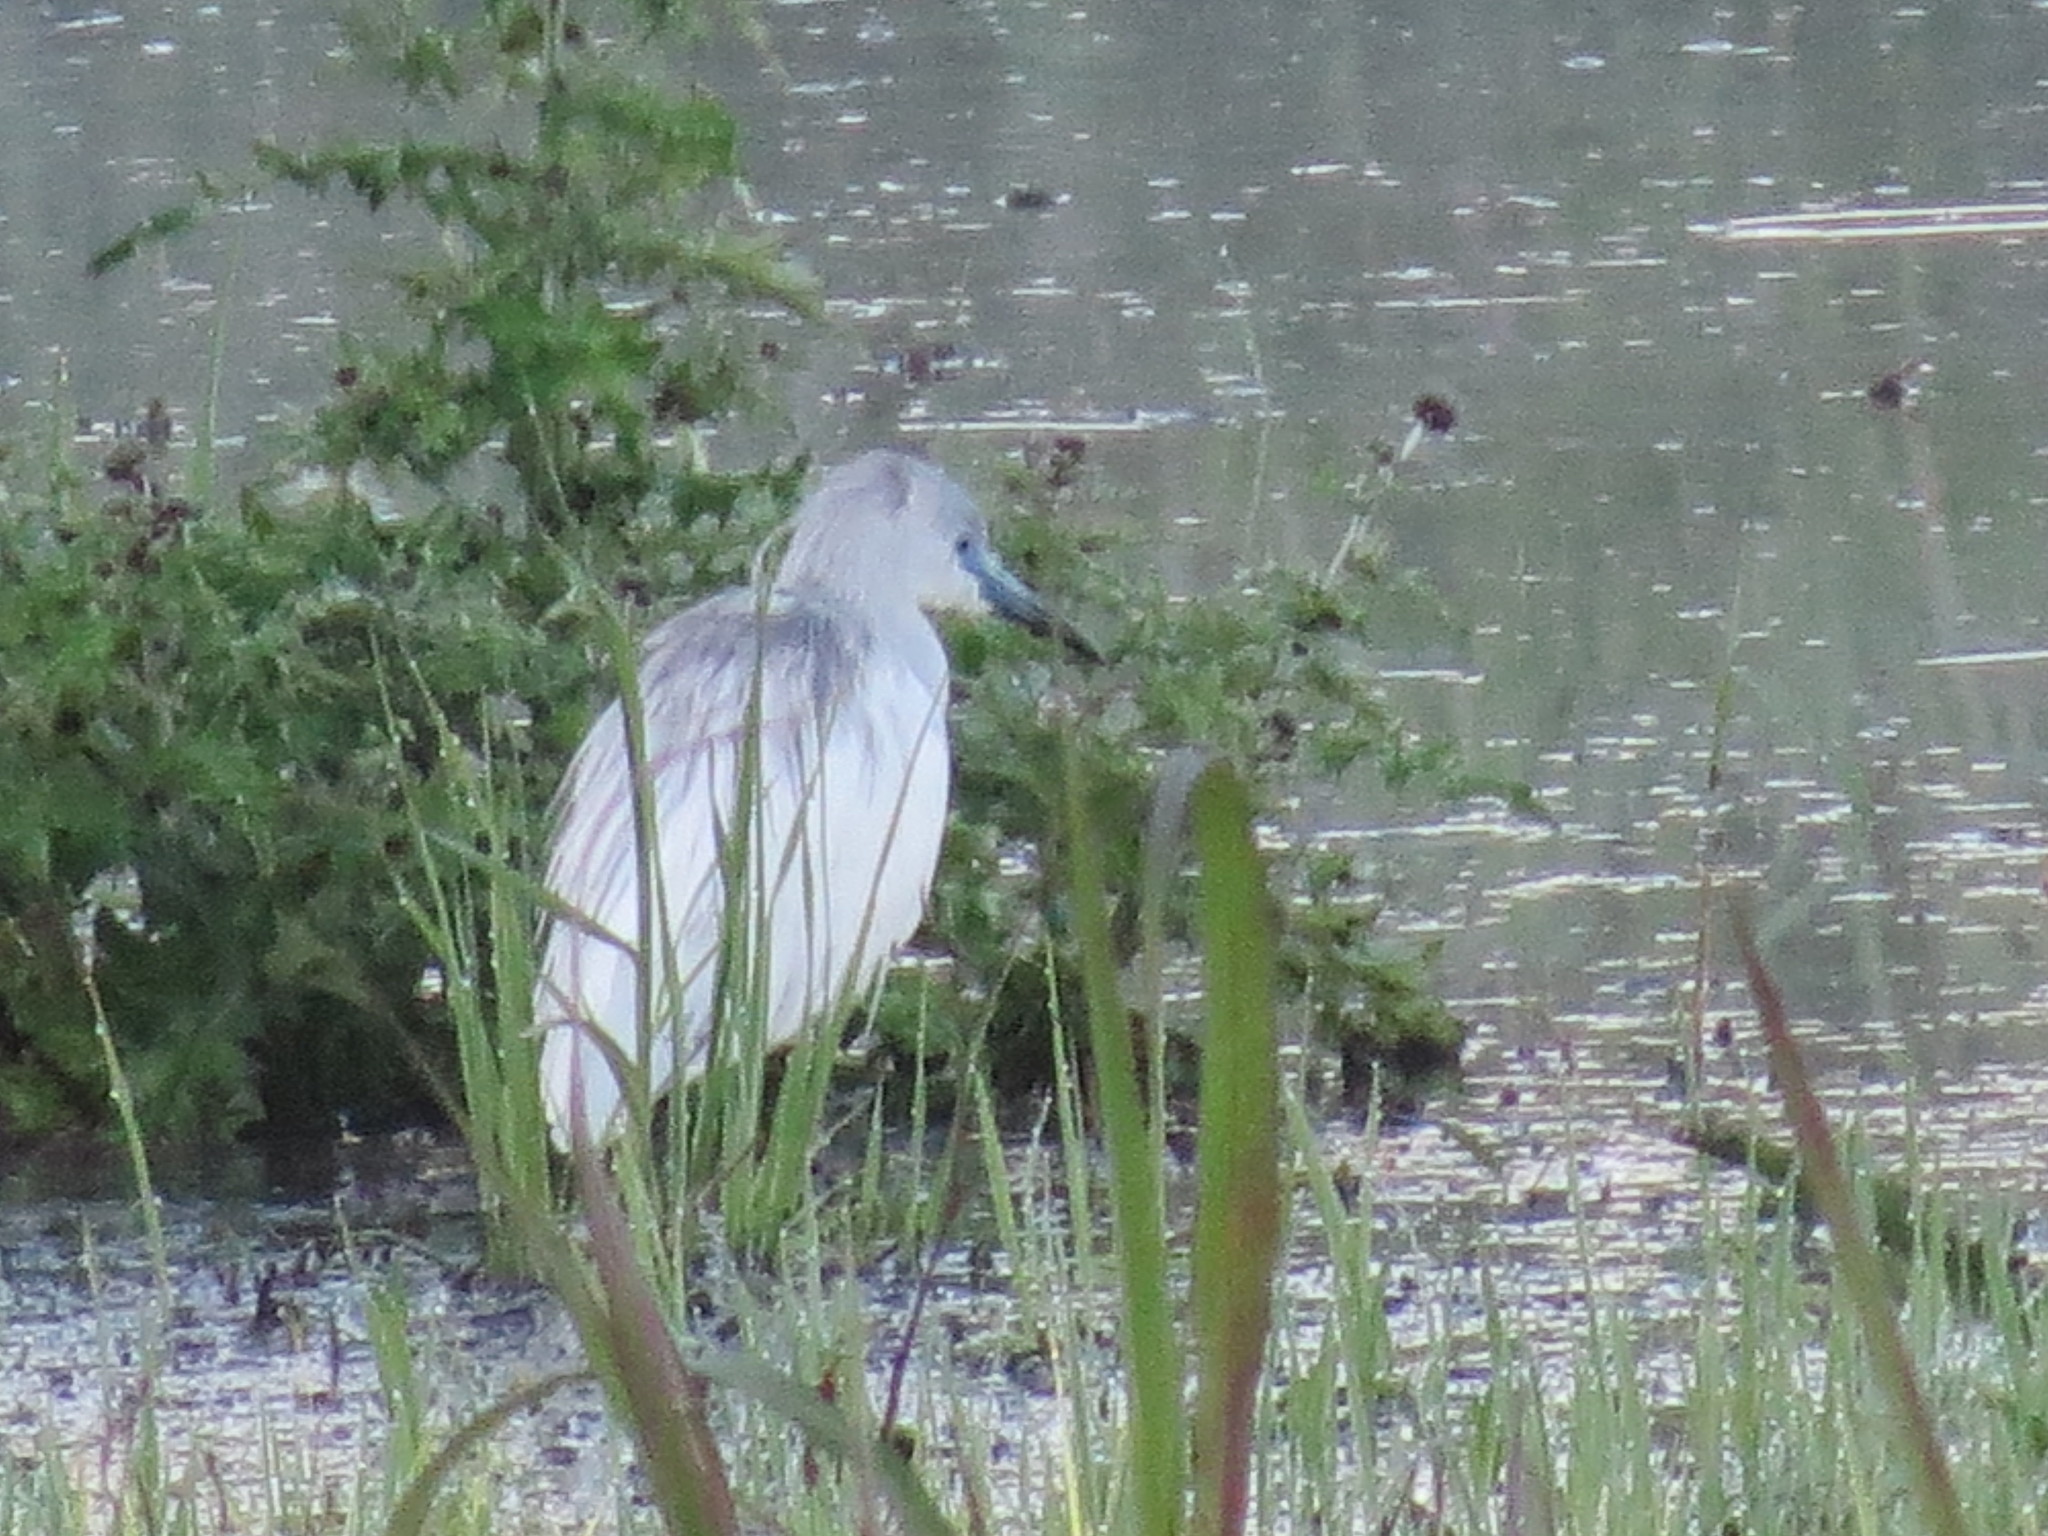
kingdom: Animalia
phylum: Chordata
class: Aves
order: Pelecaniformes
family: Ardeidae
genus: Egretta
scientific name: Egretta caerulea
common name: Little blue heron
